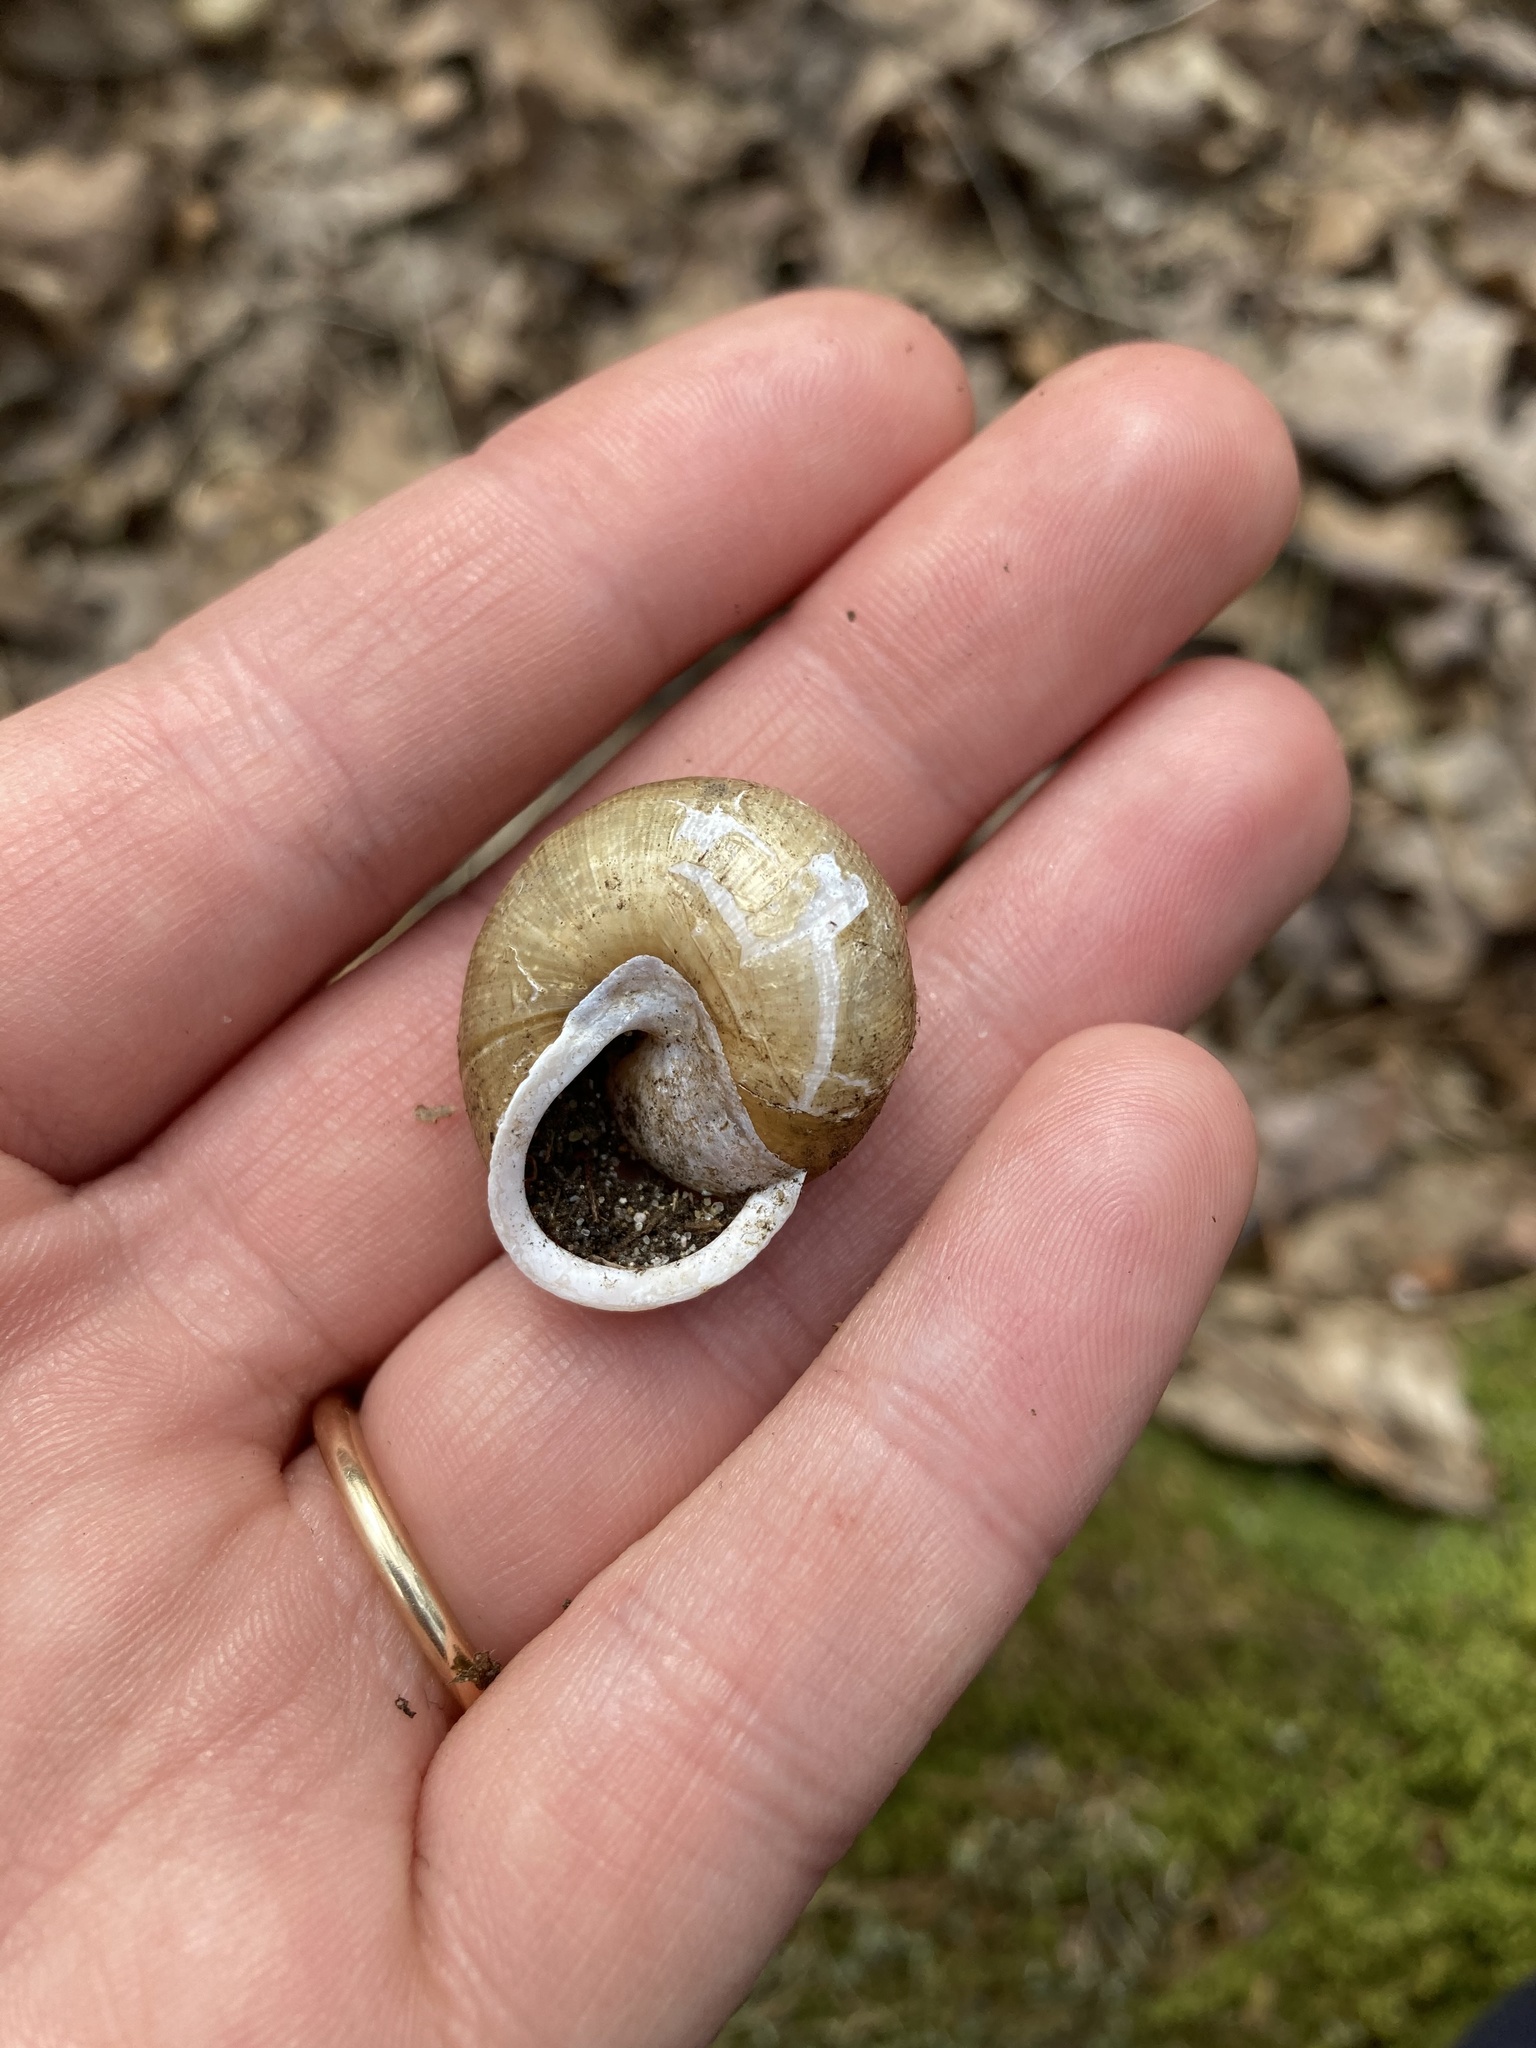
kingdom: Animalia
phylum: Mollusca
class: Gastropoda
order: Stylommatophora
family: Polygyridae
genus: Neohelix
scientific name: Neohelix albolabris
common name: Eastern whitelip
